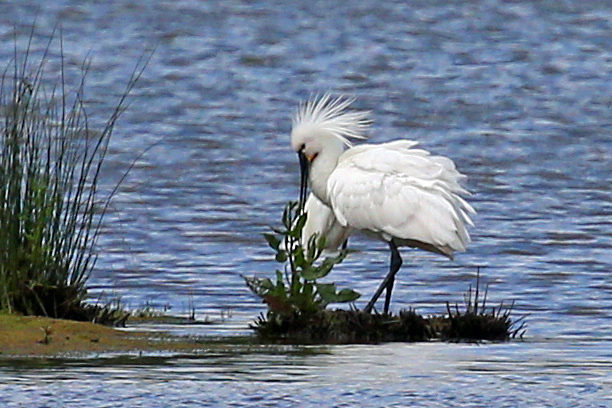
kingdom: Animalia
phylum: Chordata
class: Aves
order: Pelecaniformes
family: Threskiornithidae
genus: Platalea
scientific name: Platalea leucorodia
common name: Eurasian spoonbill
